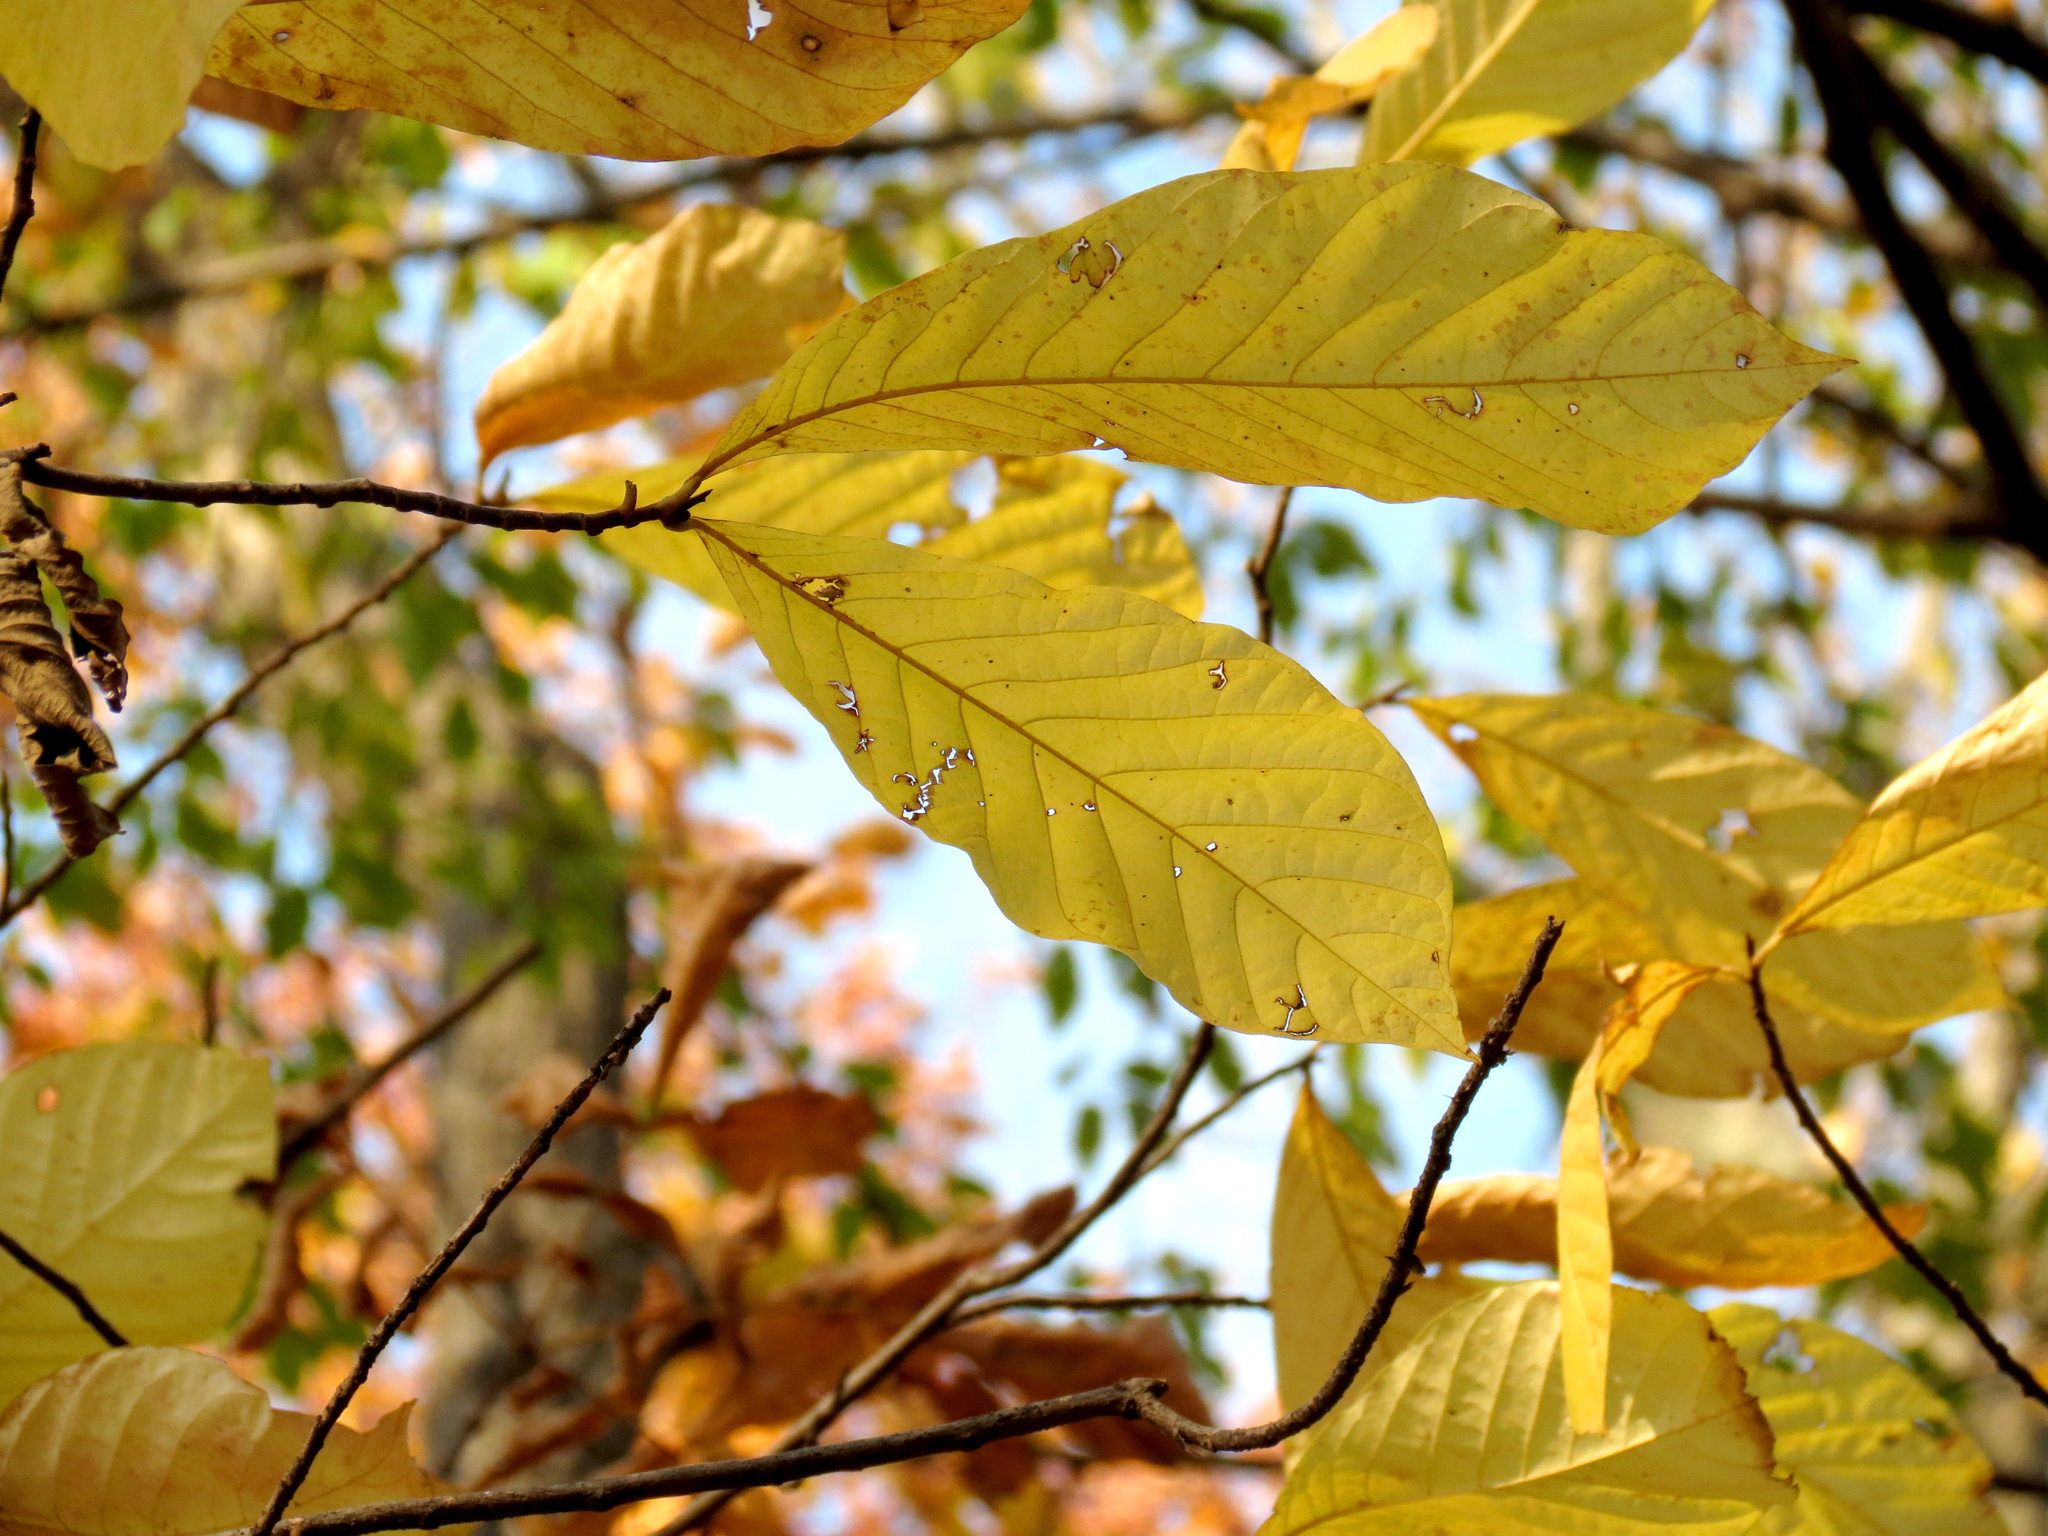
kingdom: Plantae
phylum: Tracheophyta
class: Magnoliopsida
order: Magnoliales
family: Annonaceae
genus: Asimina
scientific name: Asimina triloba
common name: Dog-banana
